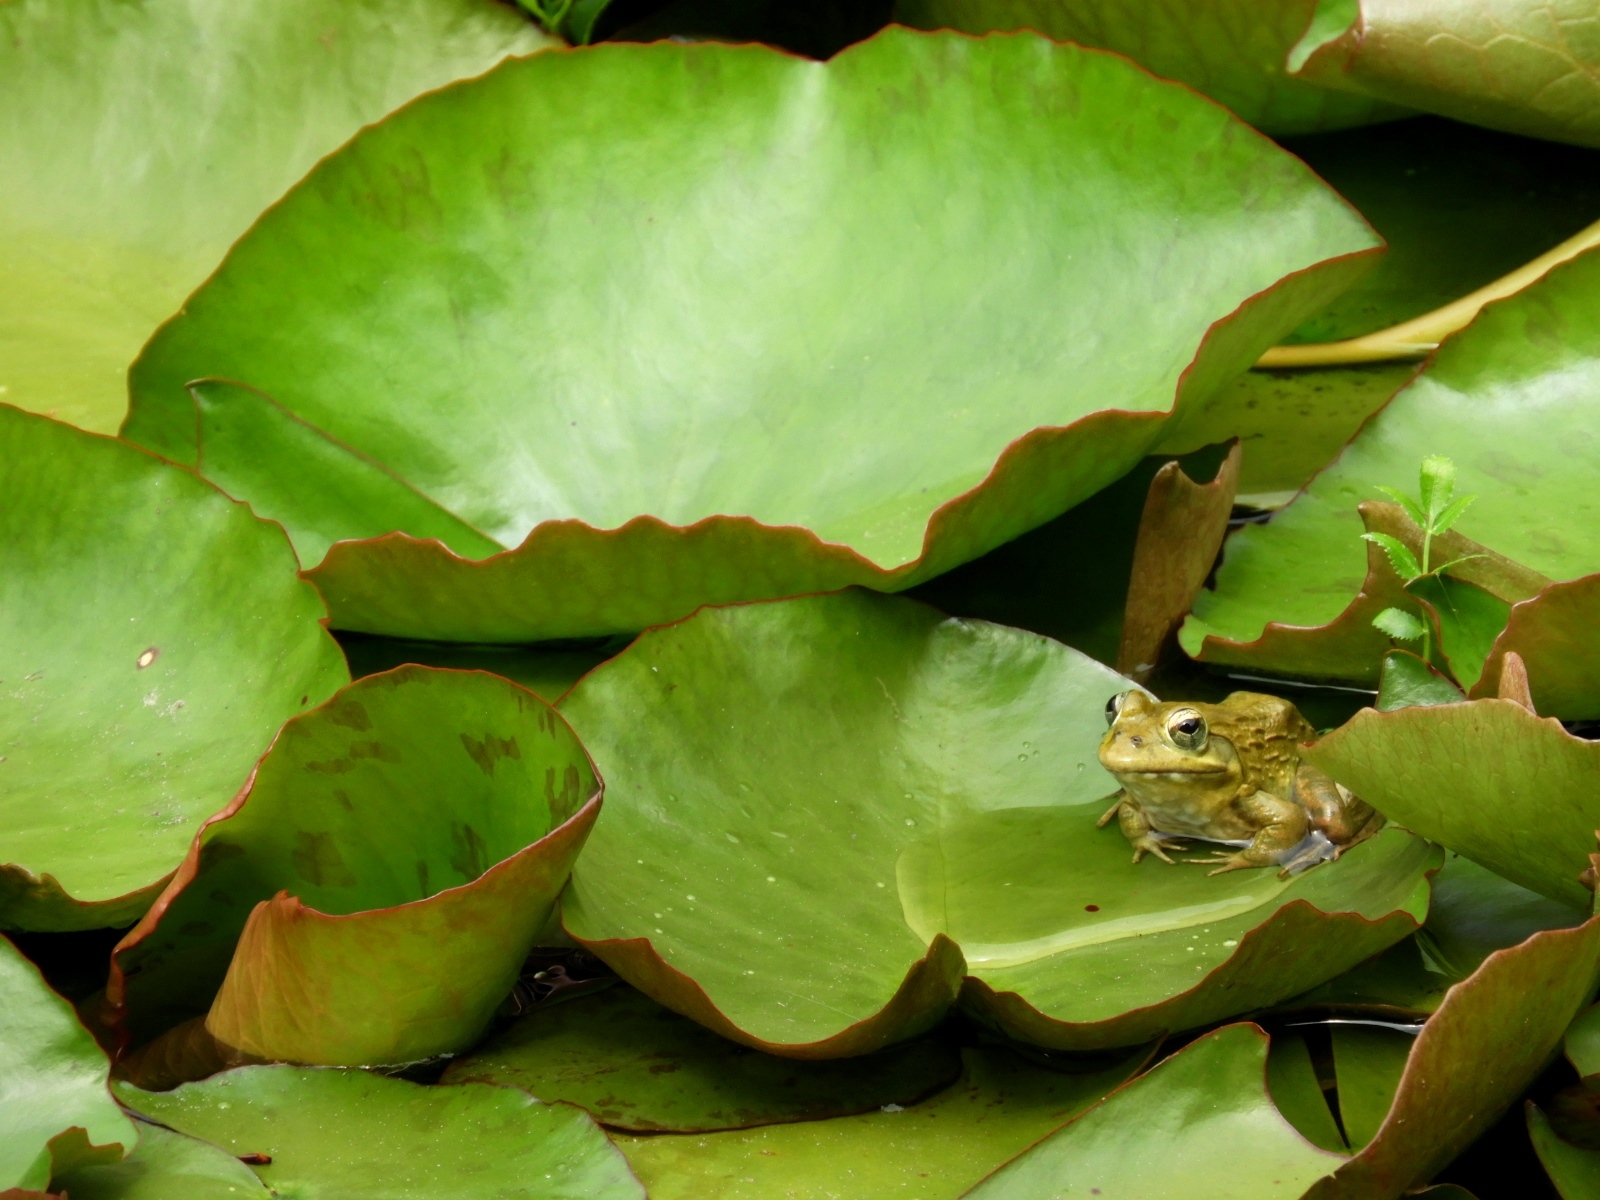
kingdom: Animalia
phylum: Chordata
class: Amphibia
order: Anura
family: Pyxicephalidae
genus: Amietia
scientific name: Amietia fuscigula
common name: Cape rana
